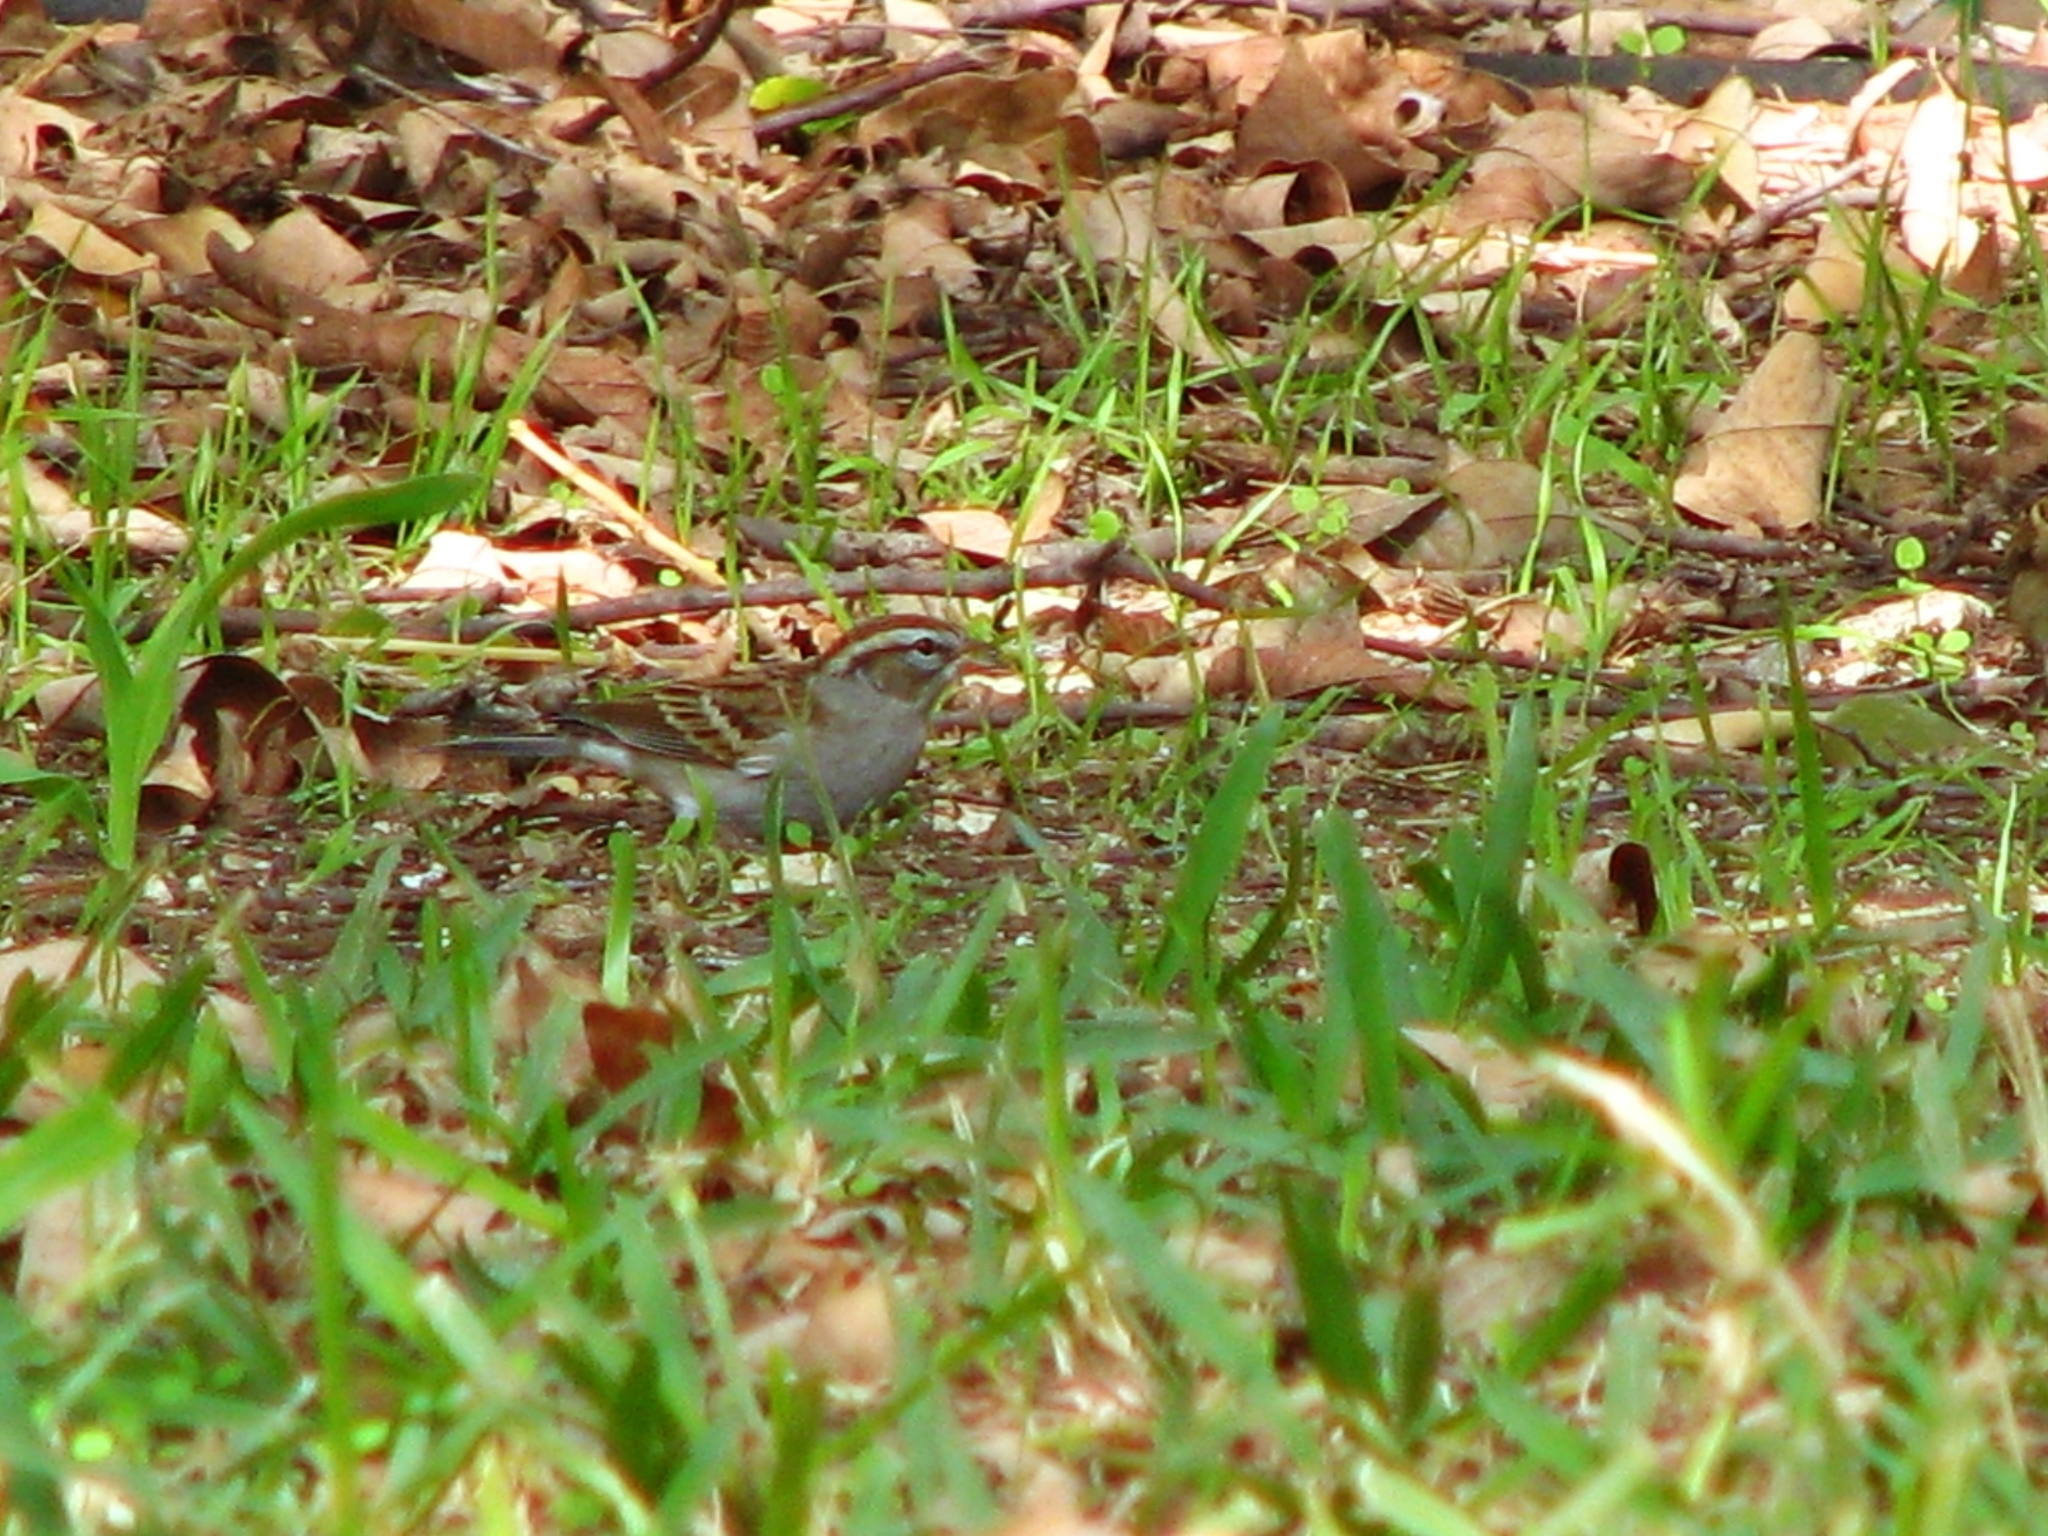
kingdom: Animalia
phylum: Chordata
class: Aves
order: Passeriformes
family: Passerellidae
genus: Spizella
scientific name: Spizella passerina
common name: Chipping sparrow
